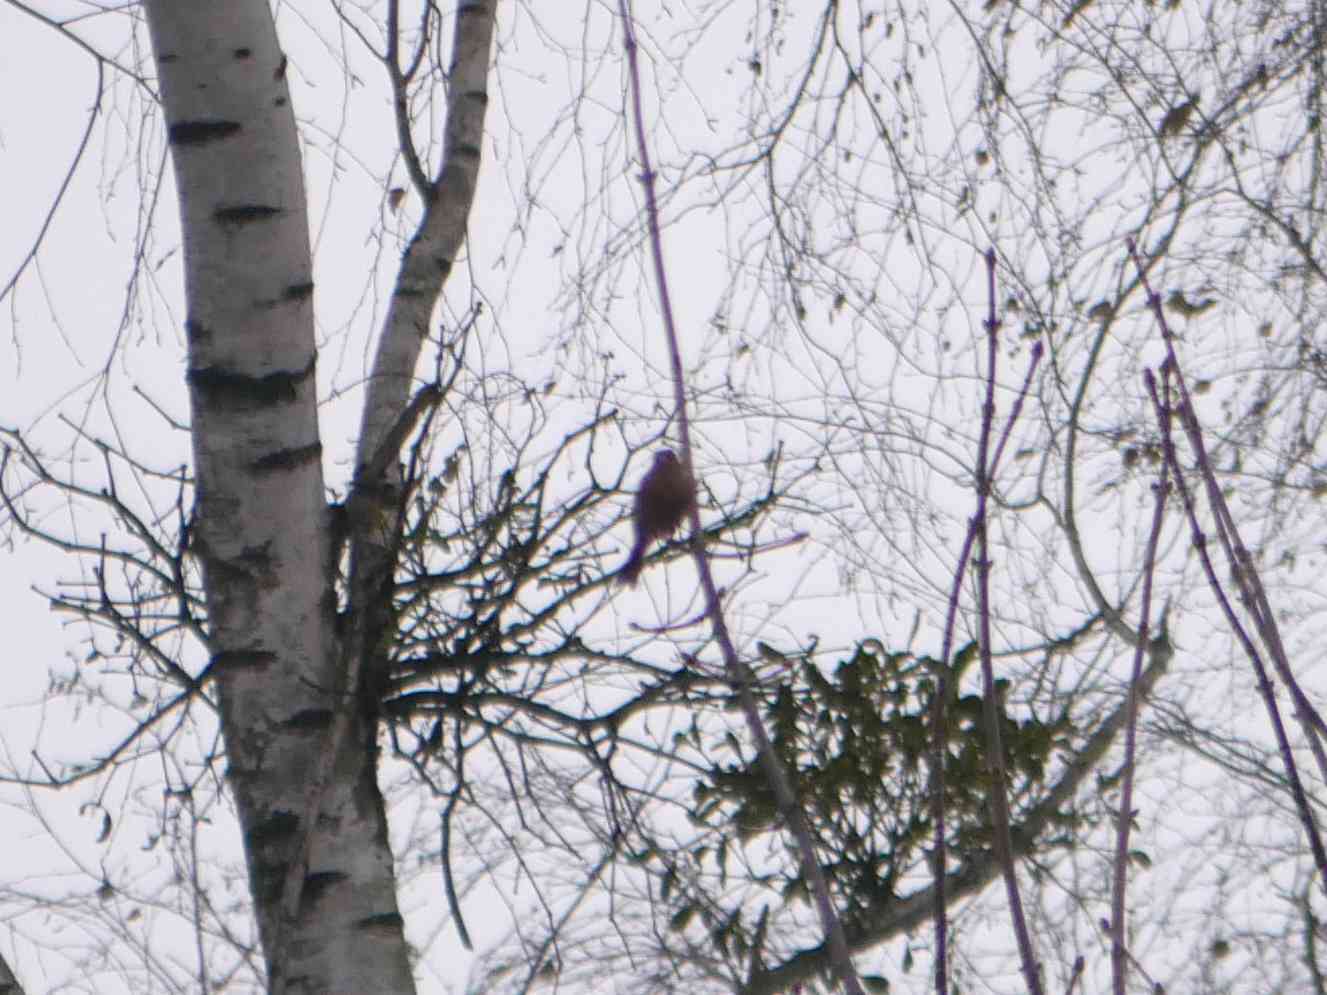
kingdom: Animalia
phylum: Chordata
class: Aves
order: Passeriformes
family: Fringillidae
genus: Fringilla
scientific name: Fringilla coelebs
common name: Common chaffinch
